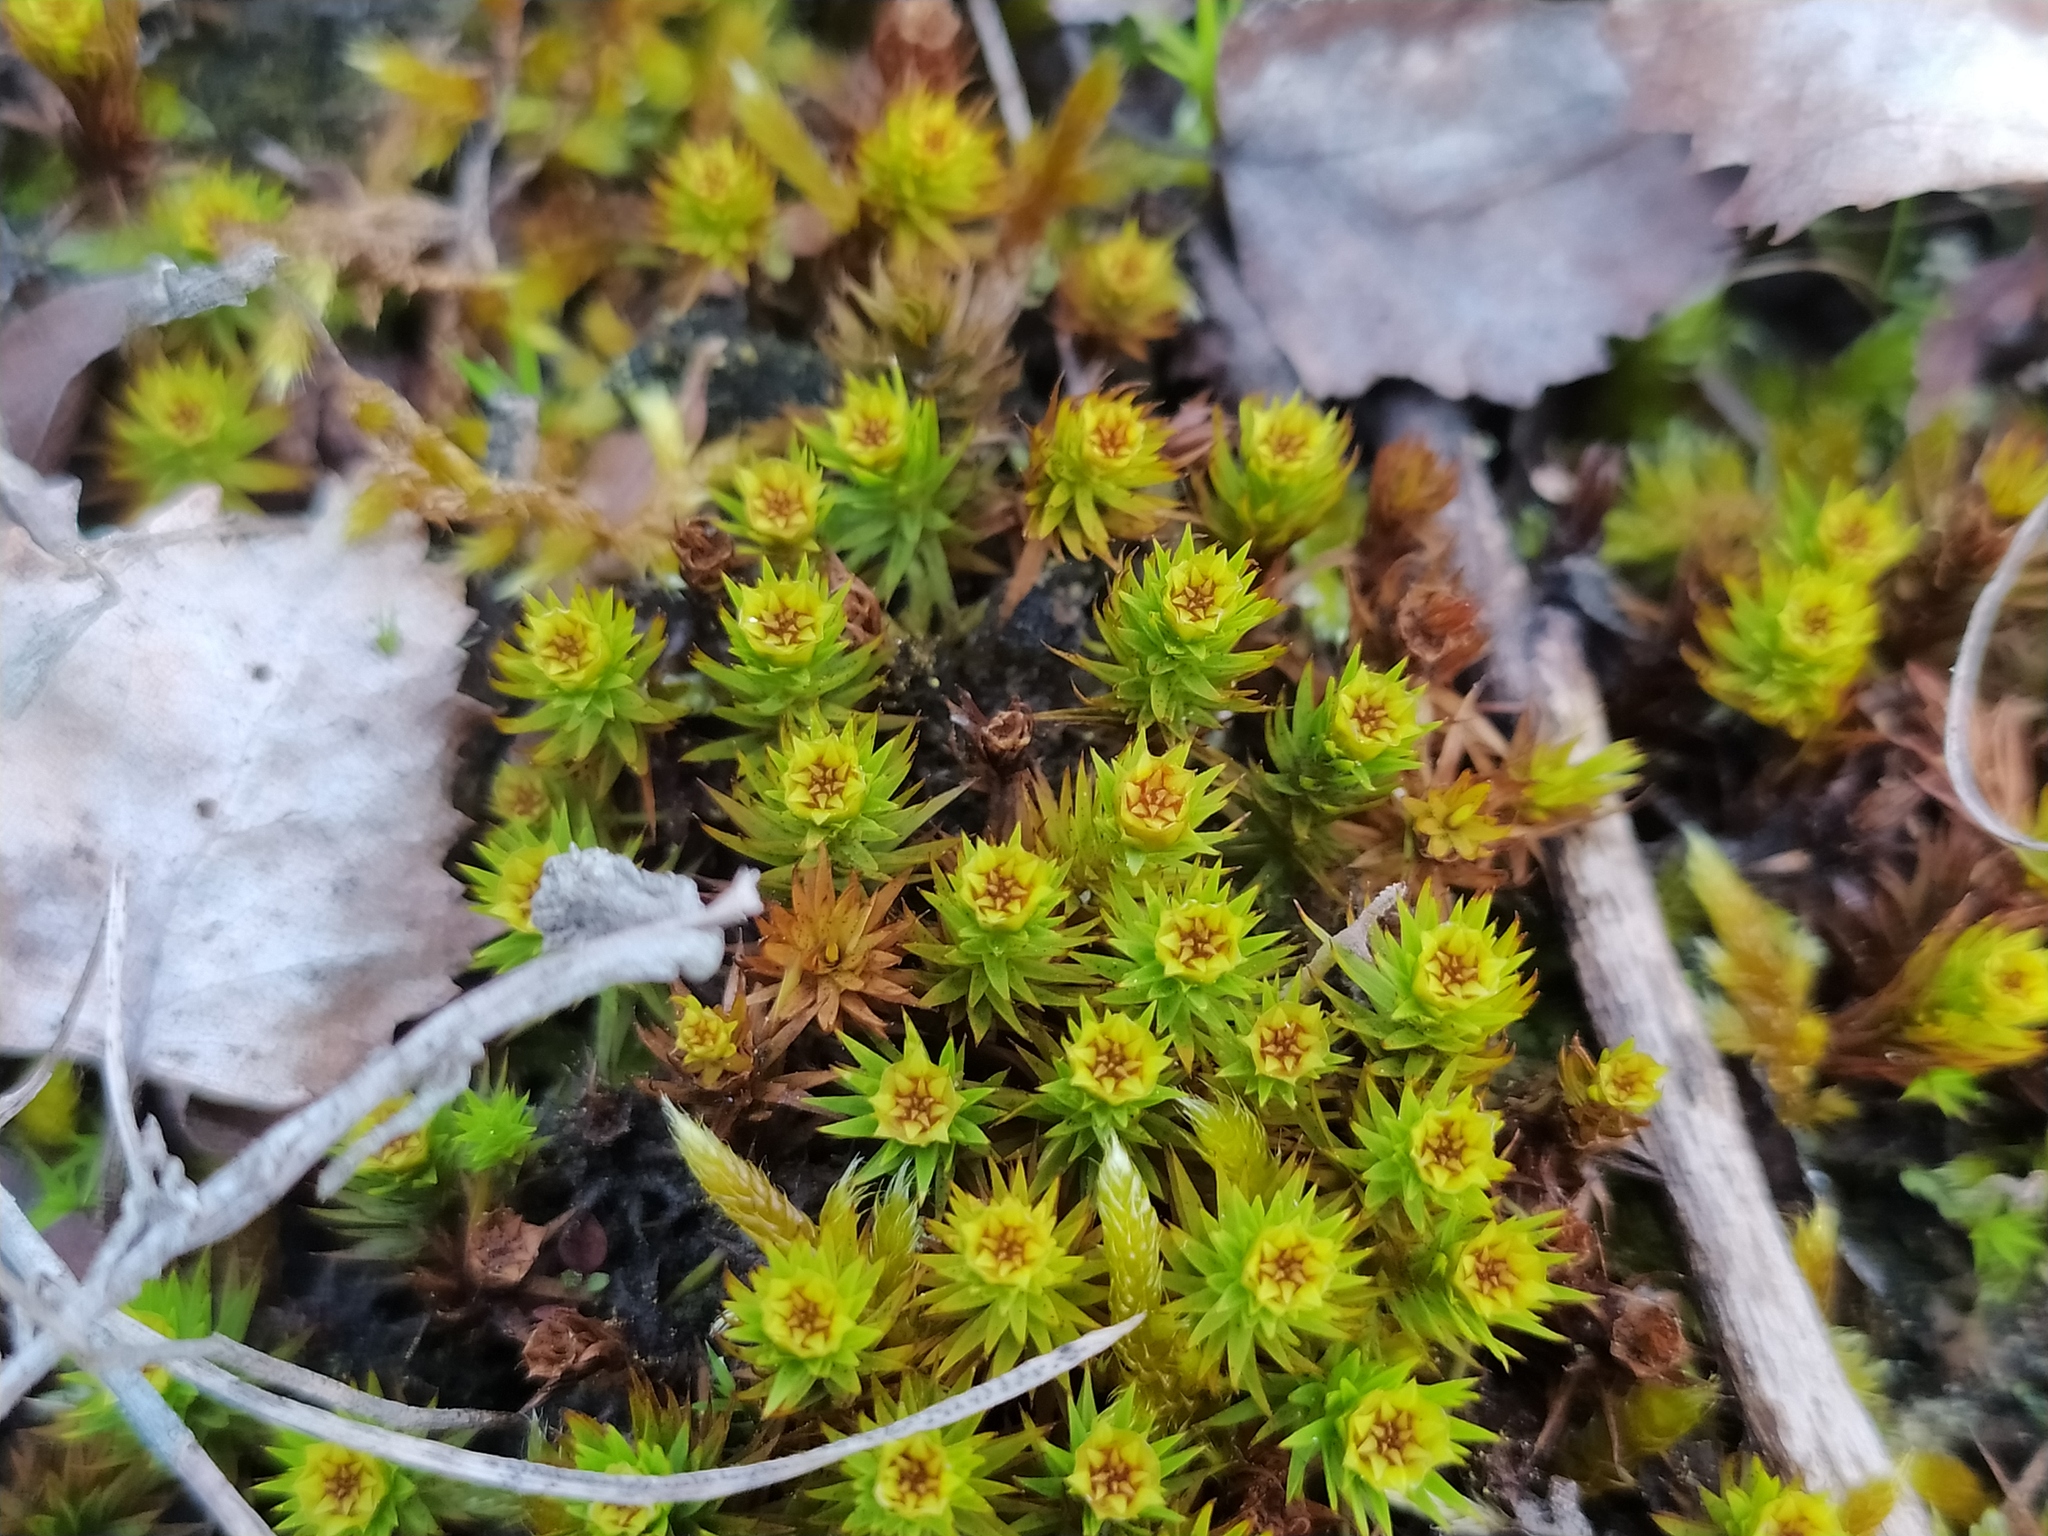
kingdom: Plantae
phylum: Bryophyta
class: Polytrichopsida
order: Polytrichales
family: Polytrichaceae
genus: Polytrichum
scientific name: Polytrichum juniperinum
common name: Juniper haircap moss
